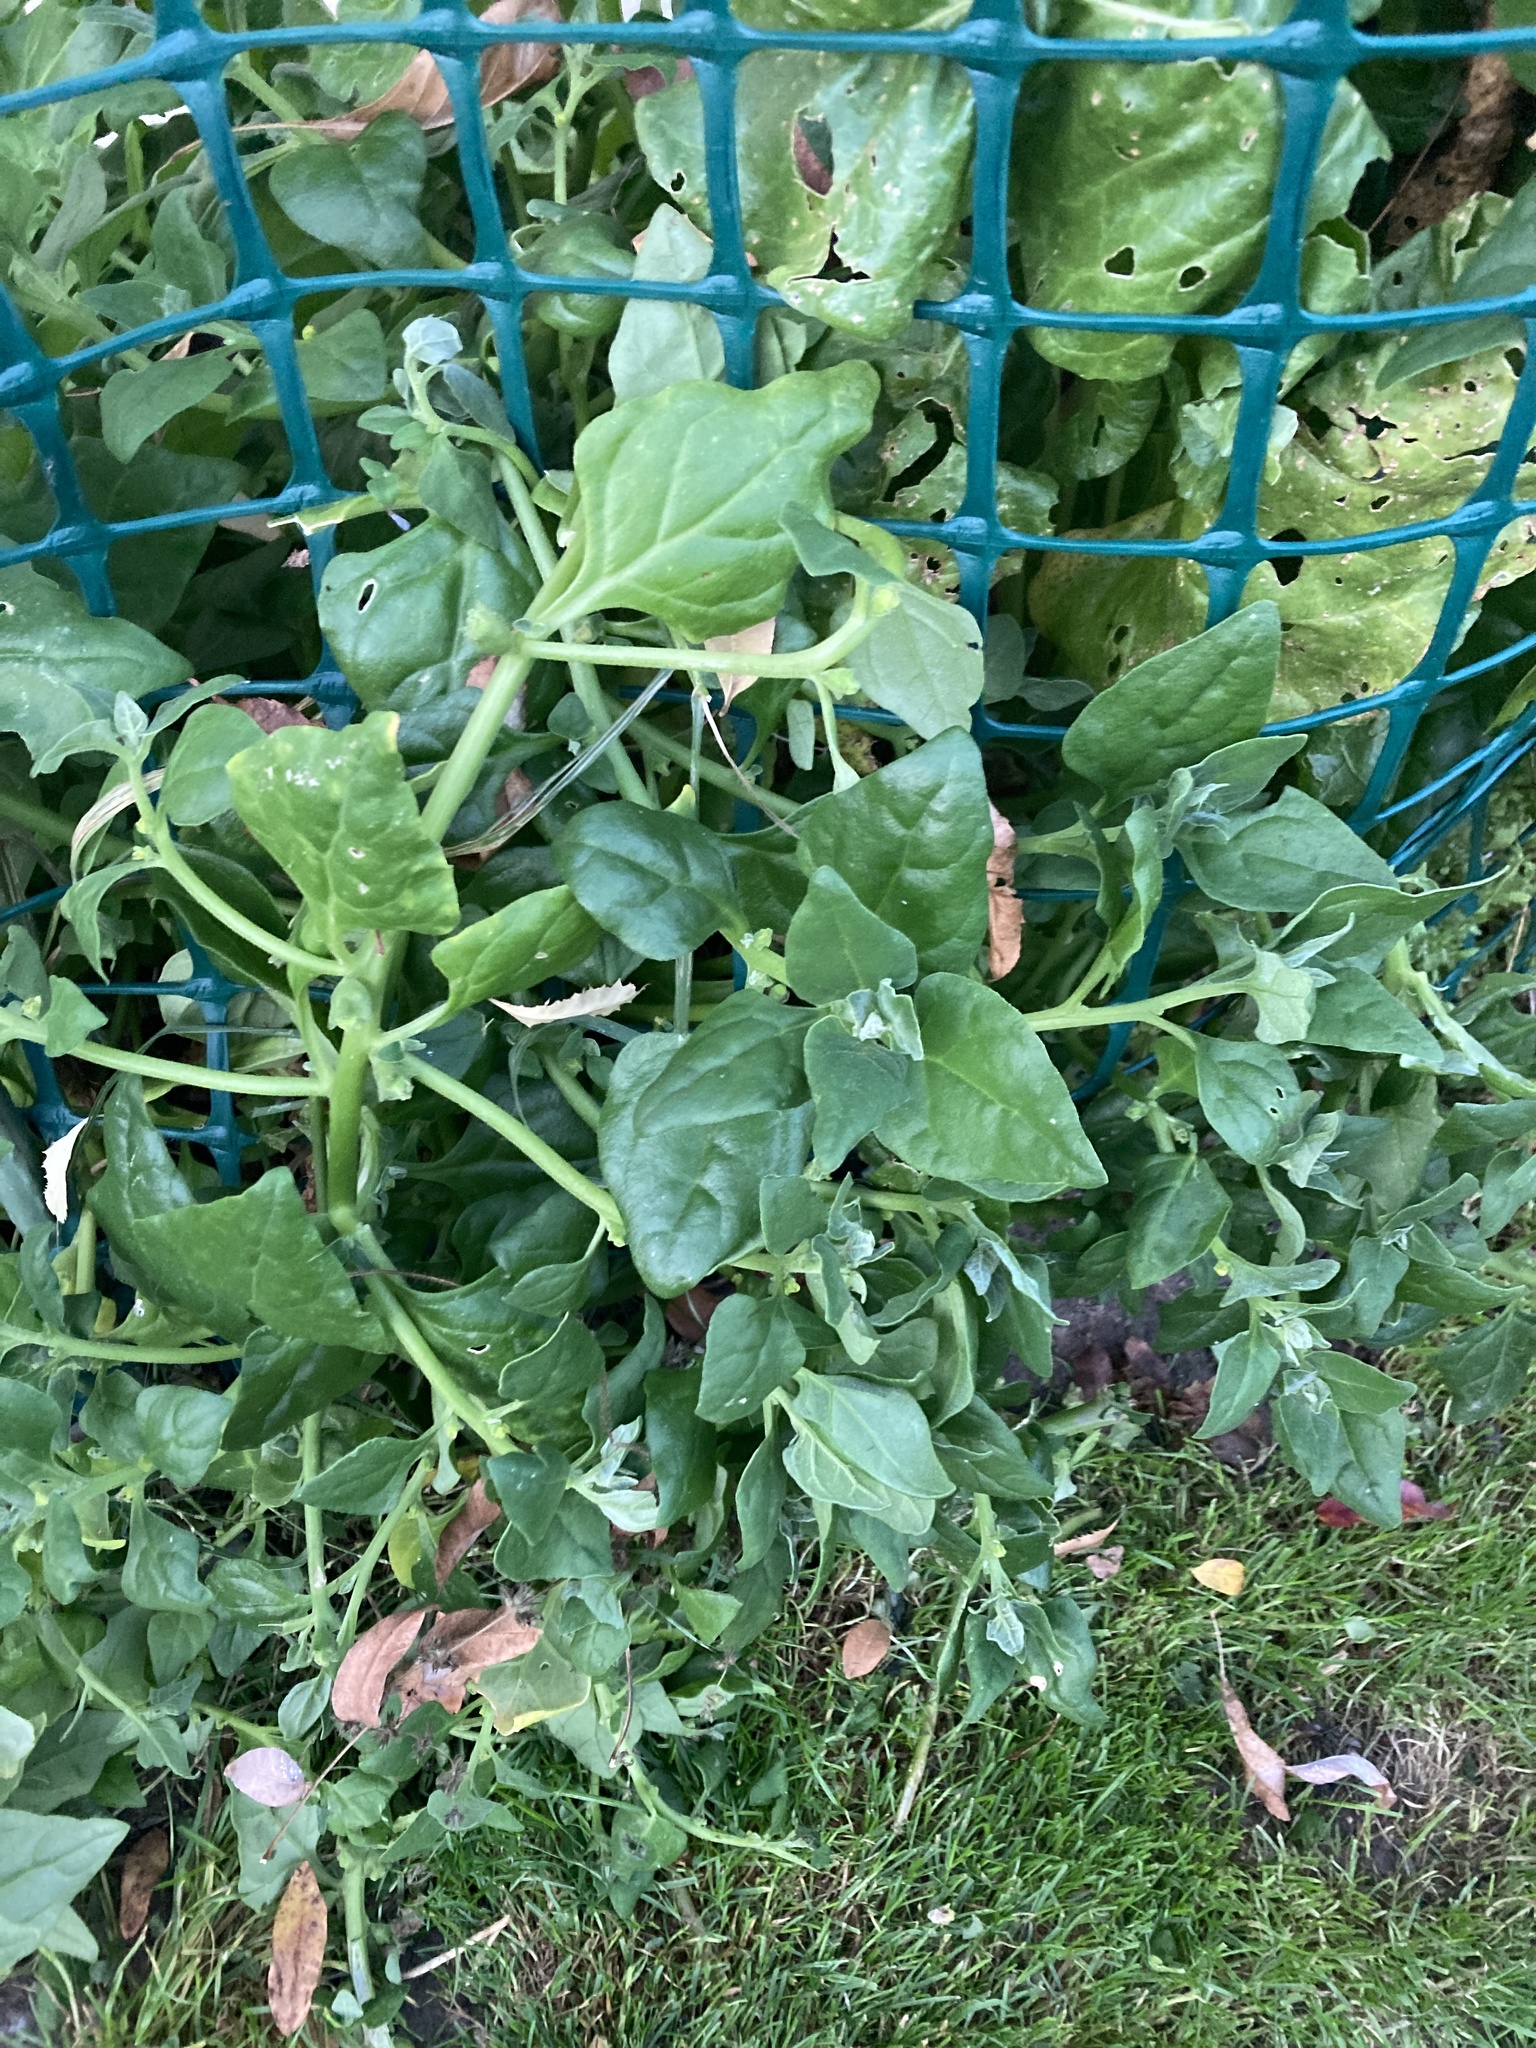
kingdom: Plantae
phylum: Tracheophyta
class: Magnoliopsida
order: Caryophyllales
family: Aizoaceae
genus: Tetragonia
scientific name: Tetragonia tetragonoides
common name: New zealand-spinach
